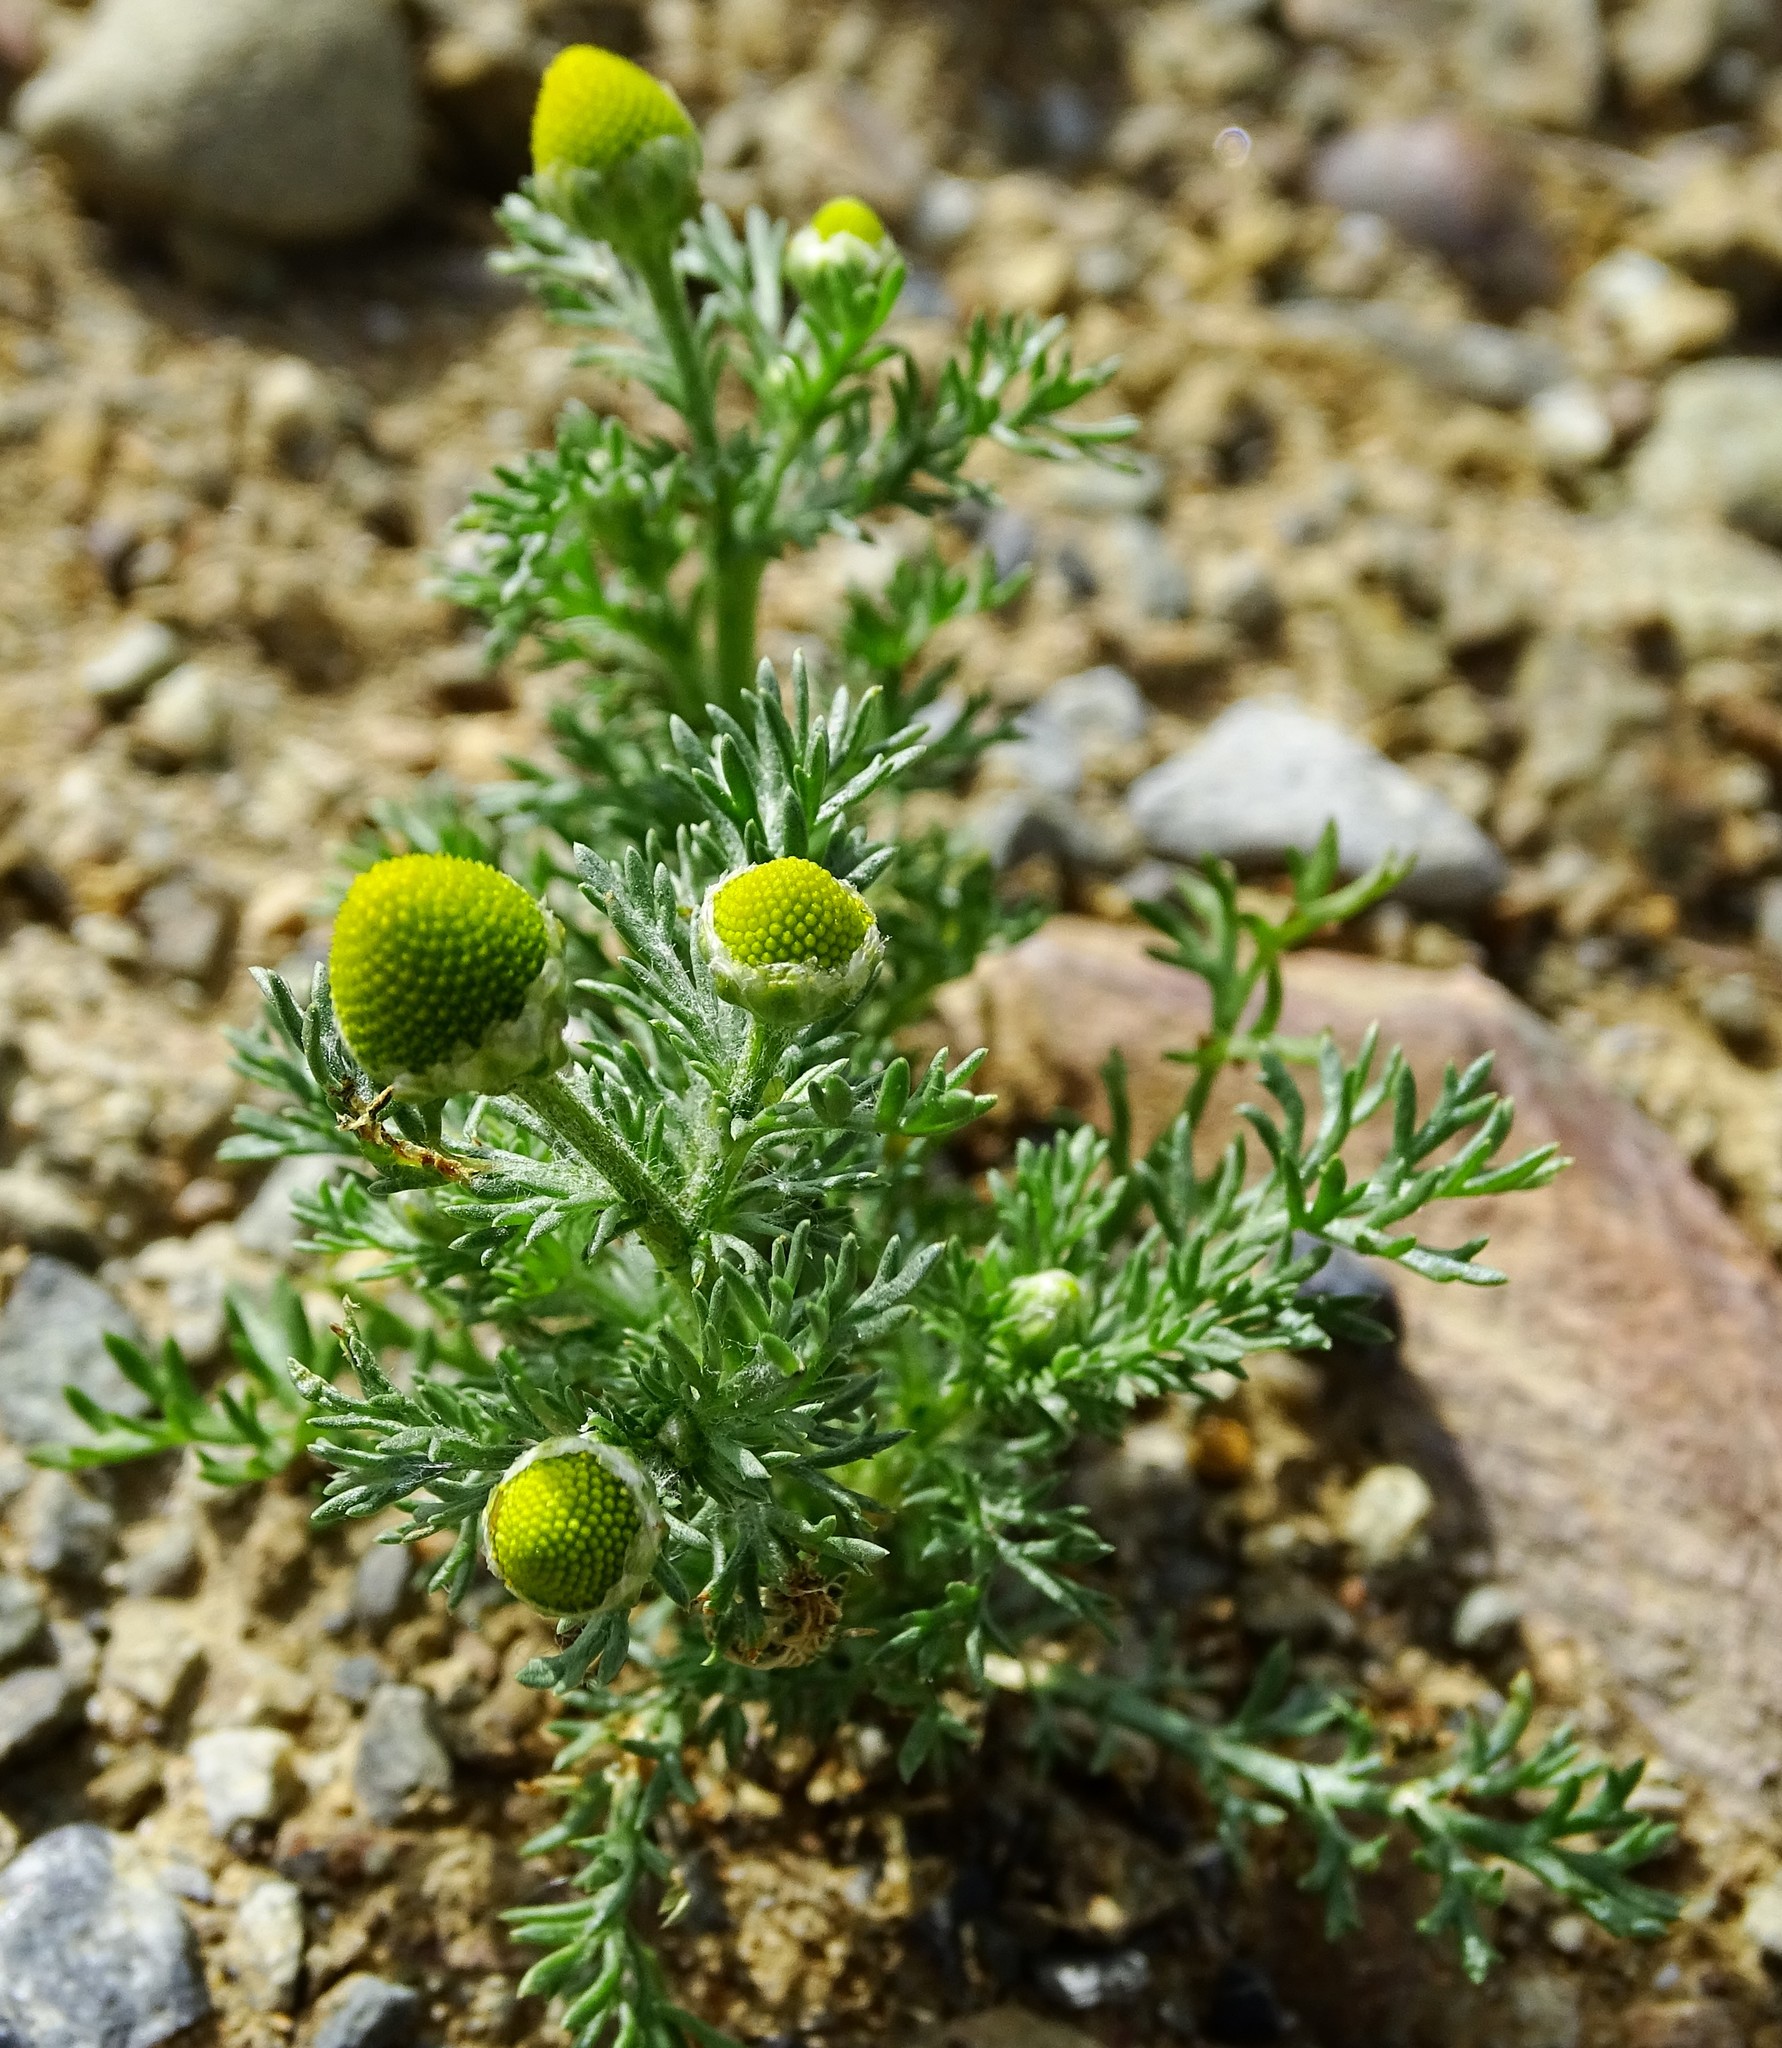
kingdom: Plantae
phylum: Tracheophyta
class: Magnoliopsida
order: Asterales
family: Asteraceae
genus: Matricaria
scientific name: Matricaria discoidea
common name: Disc mayweed
